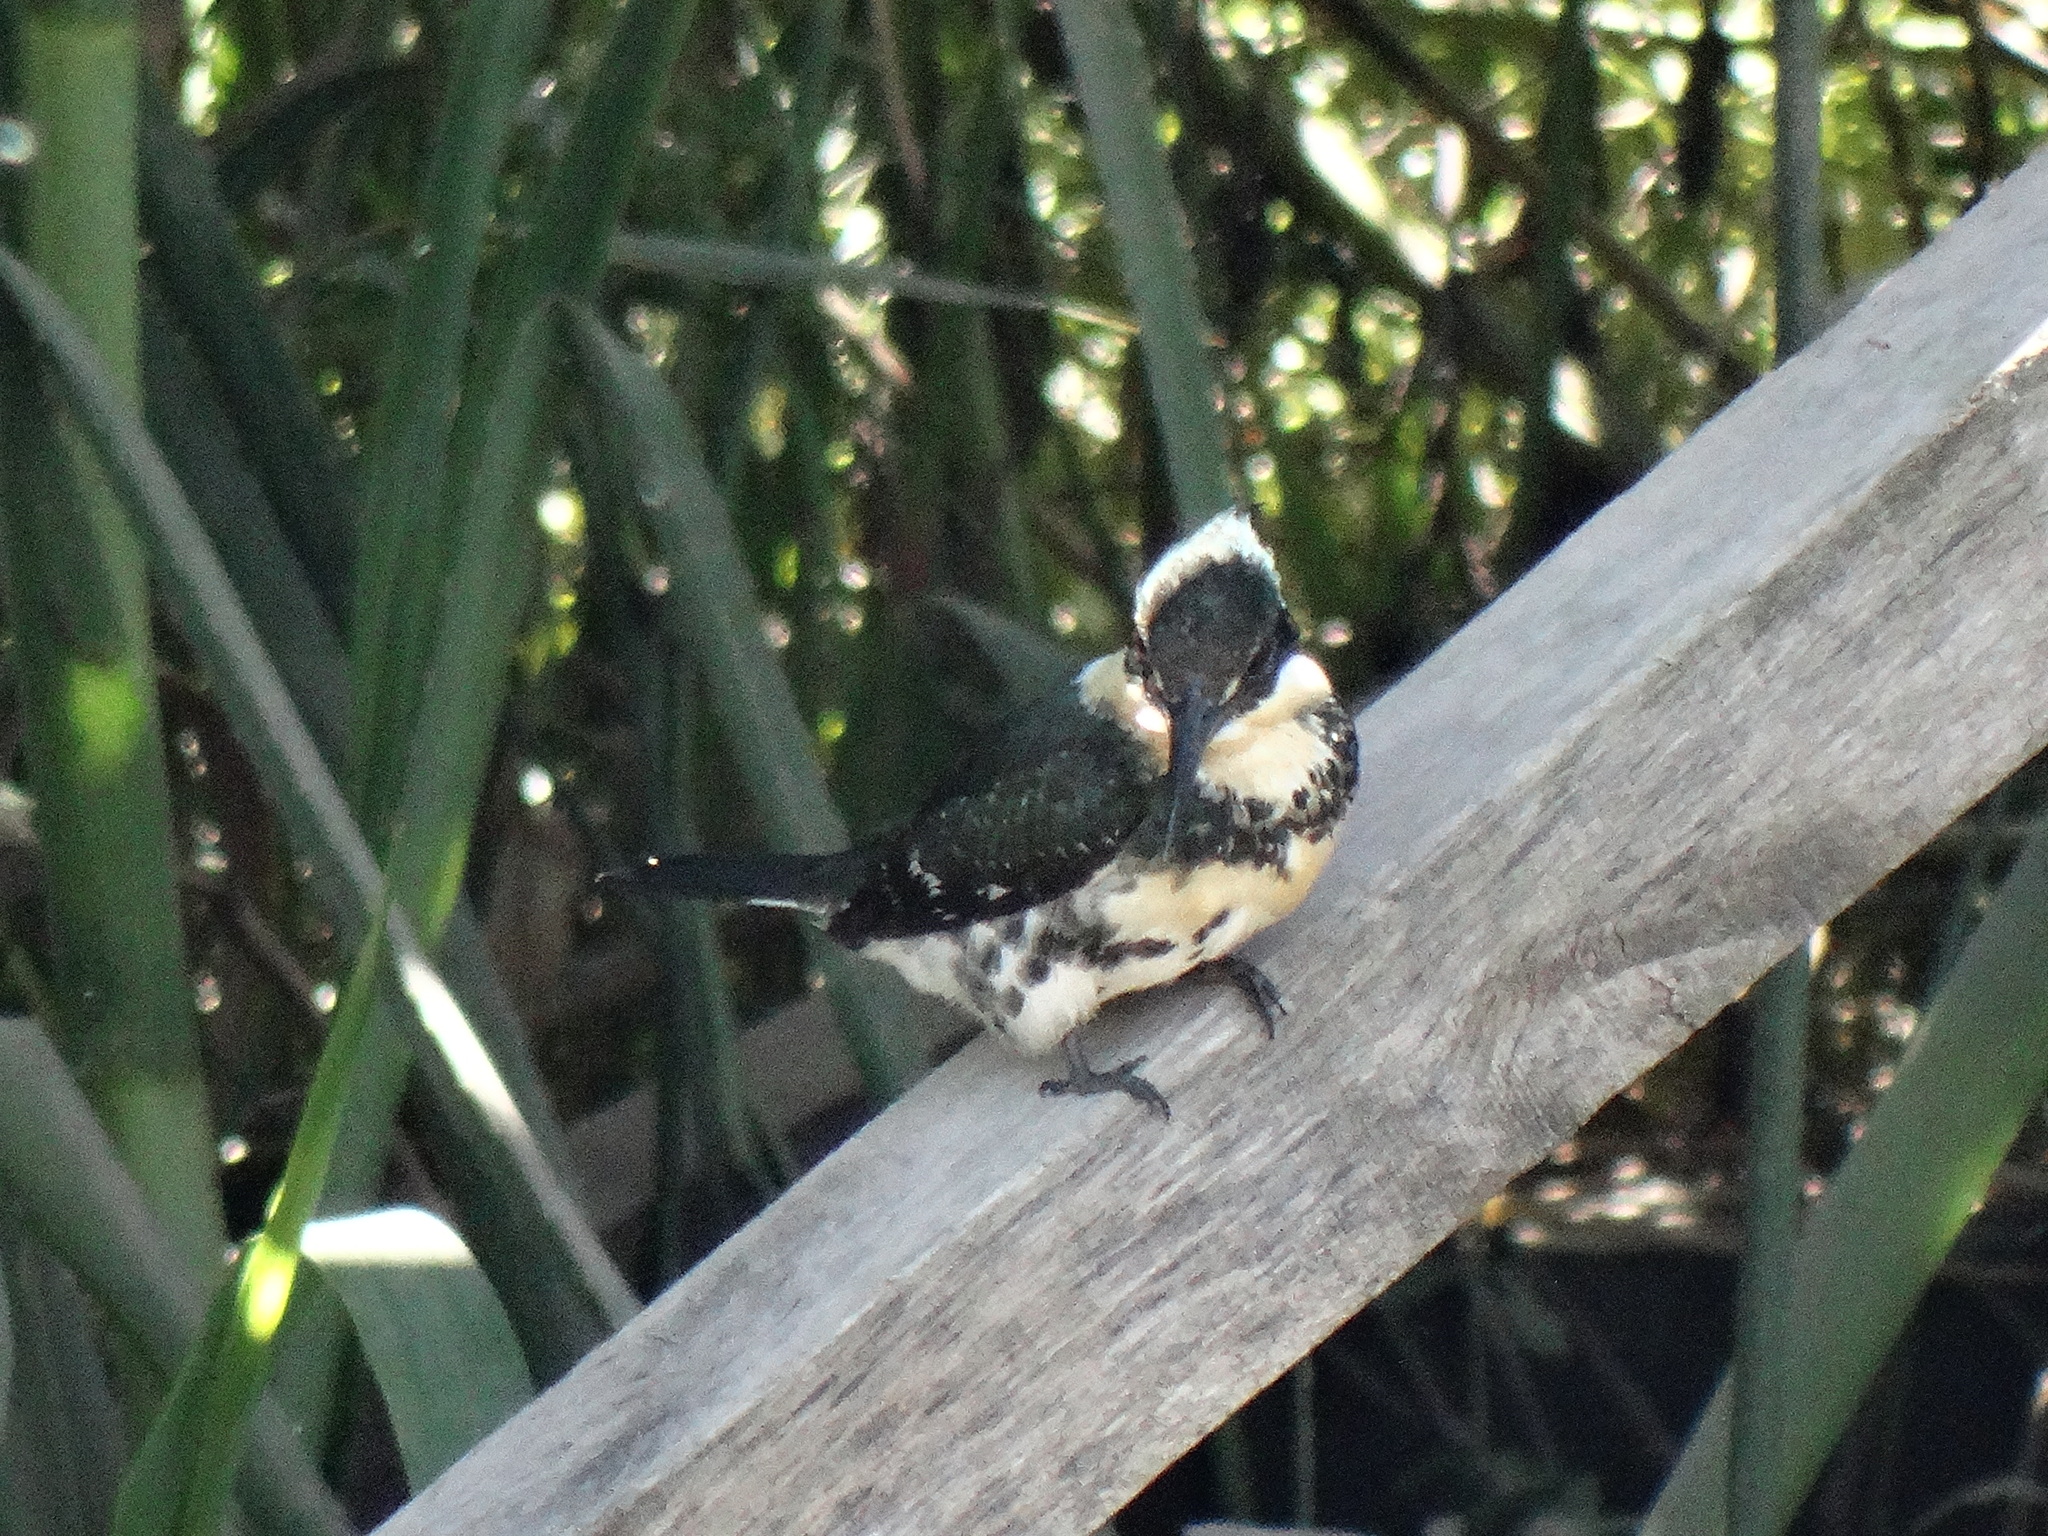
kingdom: Animalia
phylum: Chordata
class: Aves
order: Coraciiformes
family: Alcedinidae
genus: Chloroceryle
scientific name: Chloroceryle americana
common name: Green kingfisher
